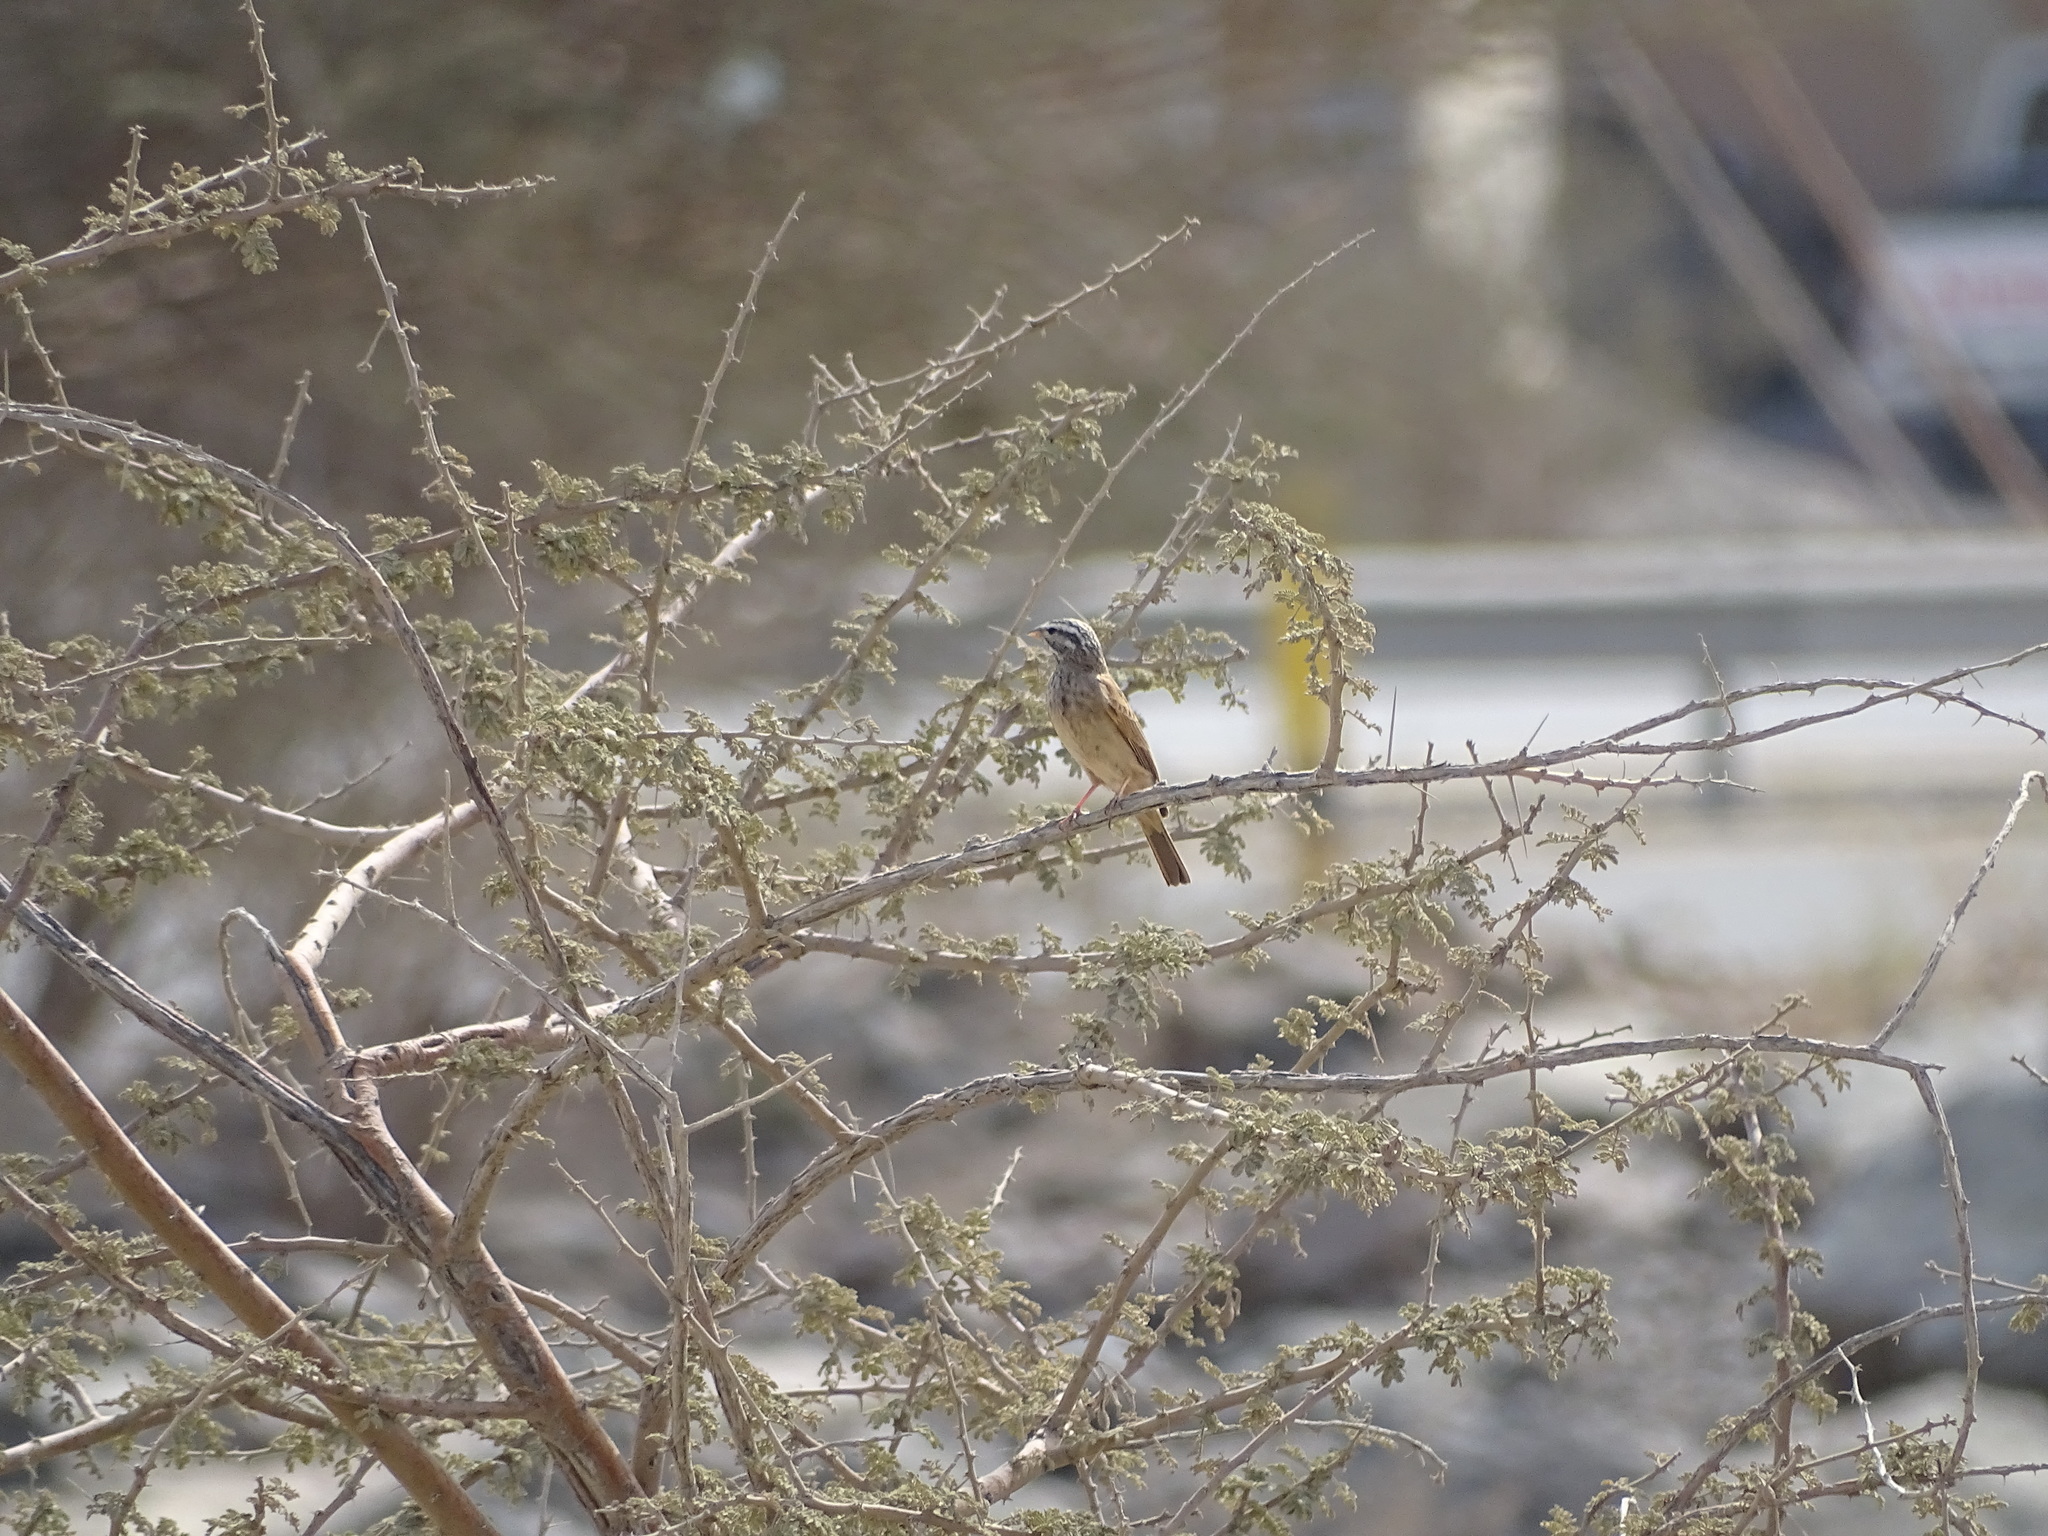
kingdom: Animalia
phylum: Chordata
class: Aves
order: Passeriformes
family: Emberizidae
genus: Emberiza
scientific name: Emberiza striolata
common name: Striolated bunting
